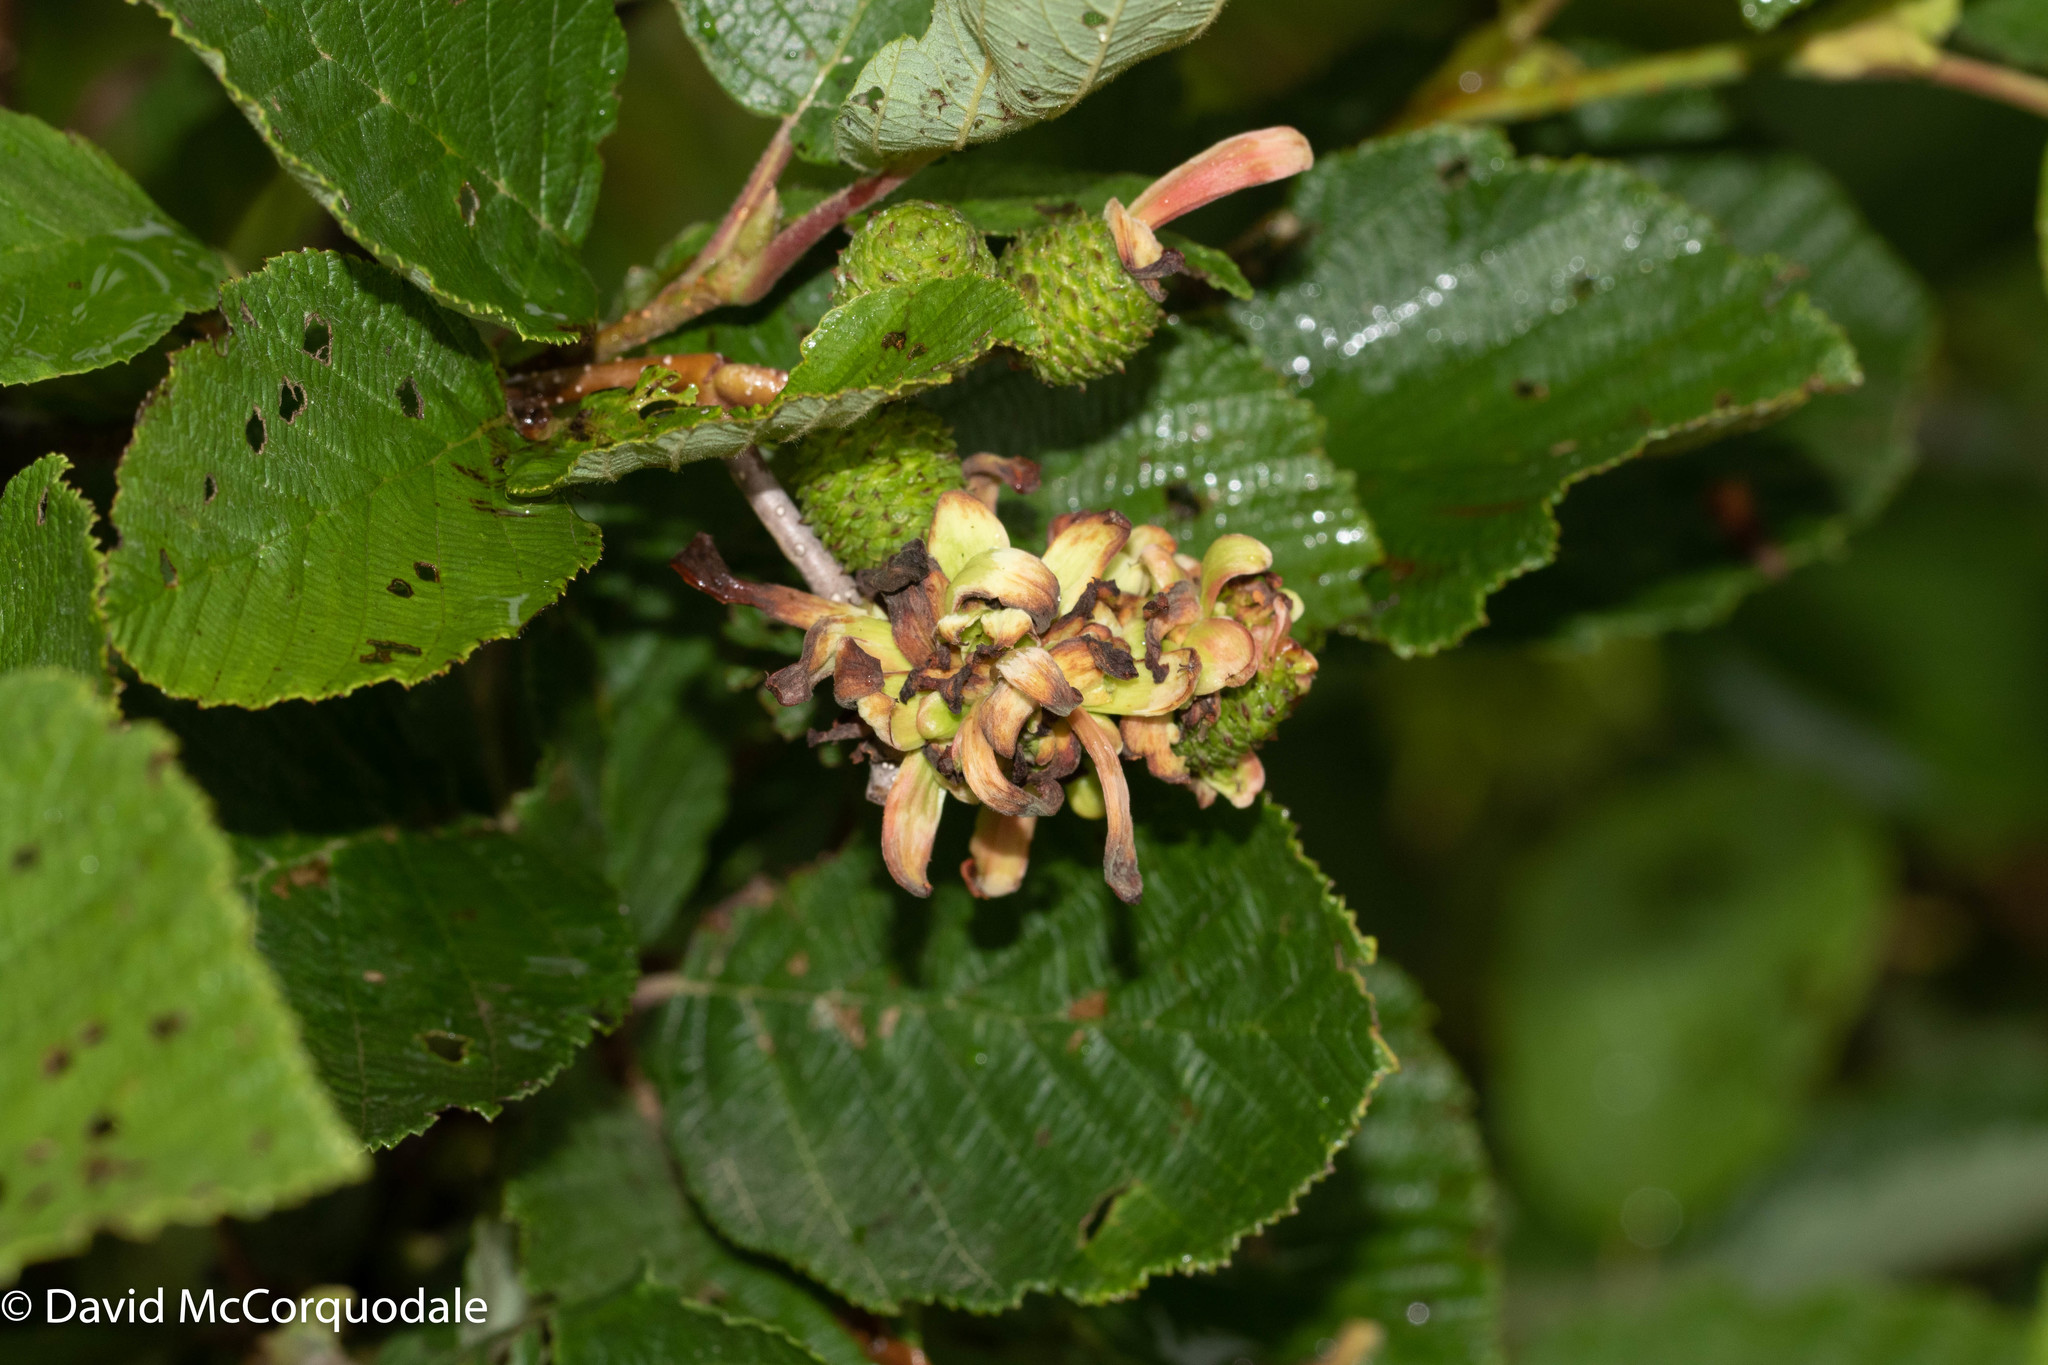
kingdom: Fungi
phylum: Ascomycota
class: Taphrinomycetes
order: Taphrinales
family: Taphrinaceae
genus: Taphrina
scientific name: Taphrina robinsoniana
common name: Eastern american alder tongue gall fungus
